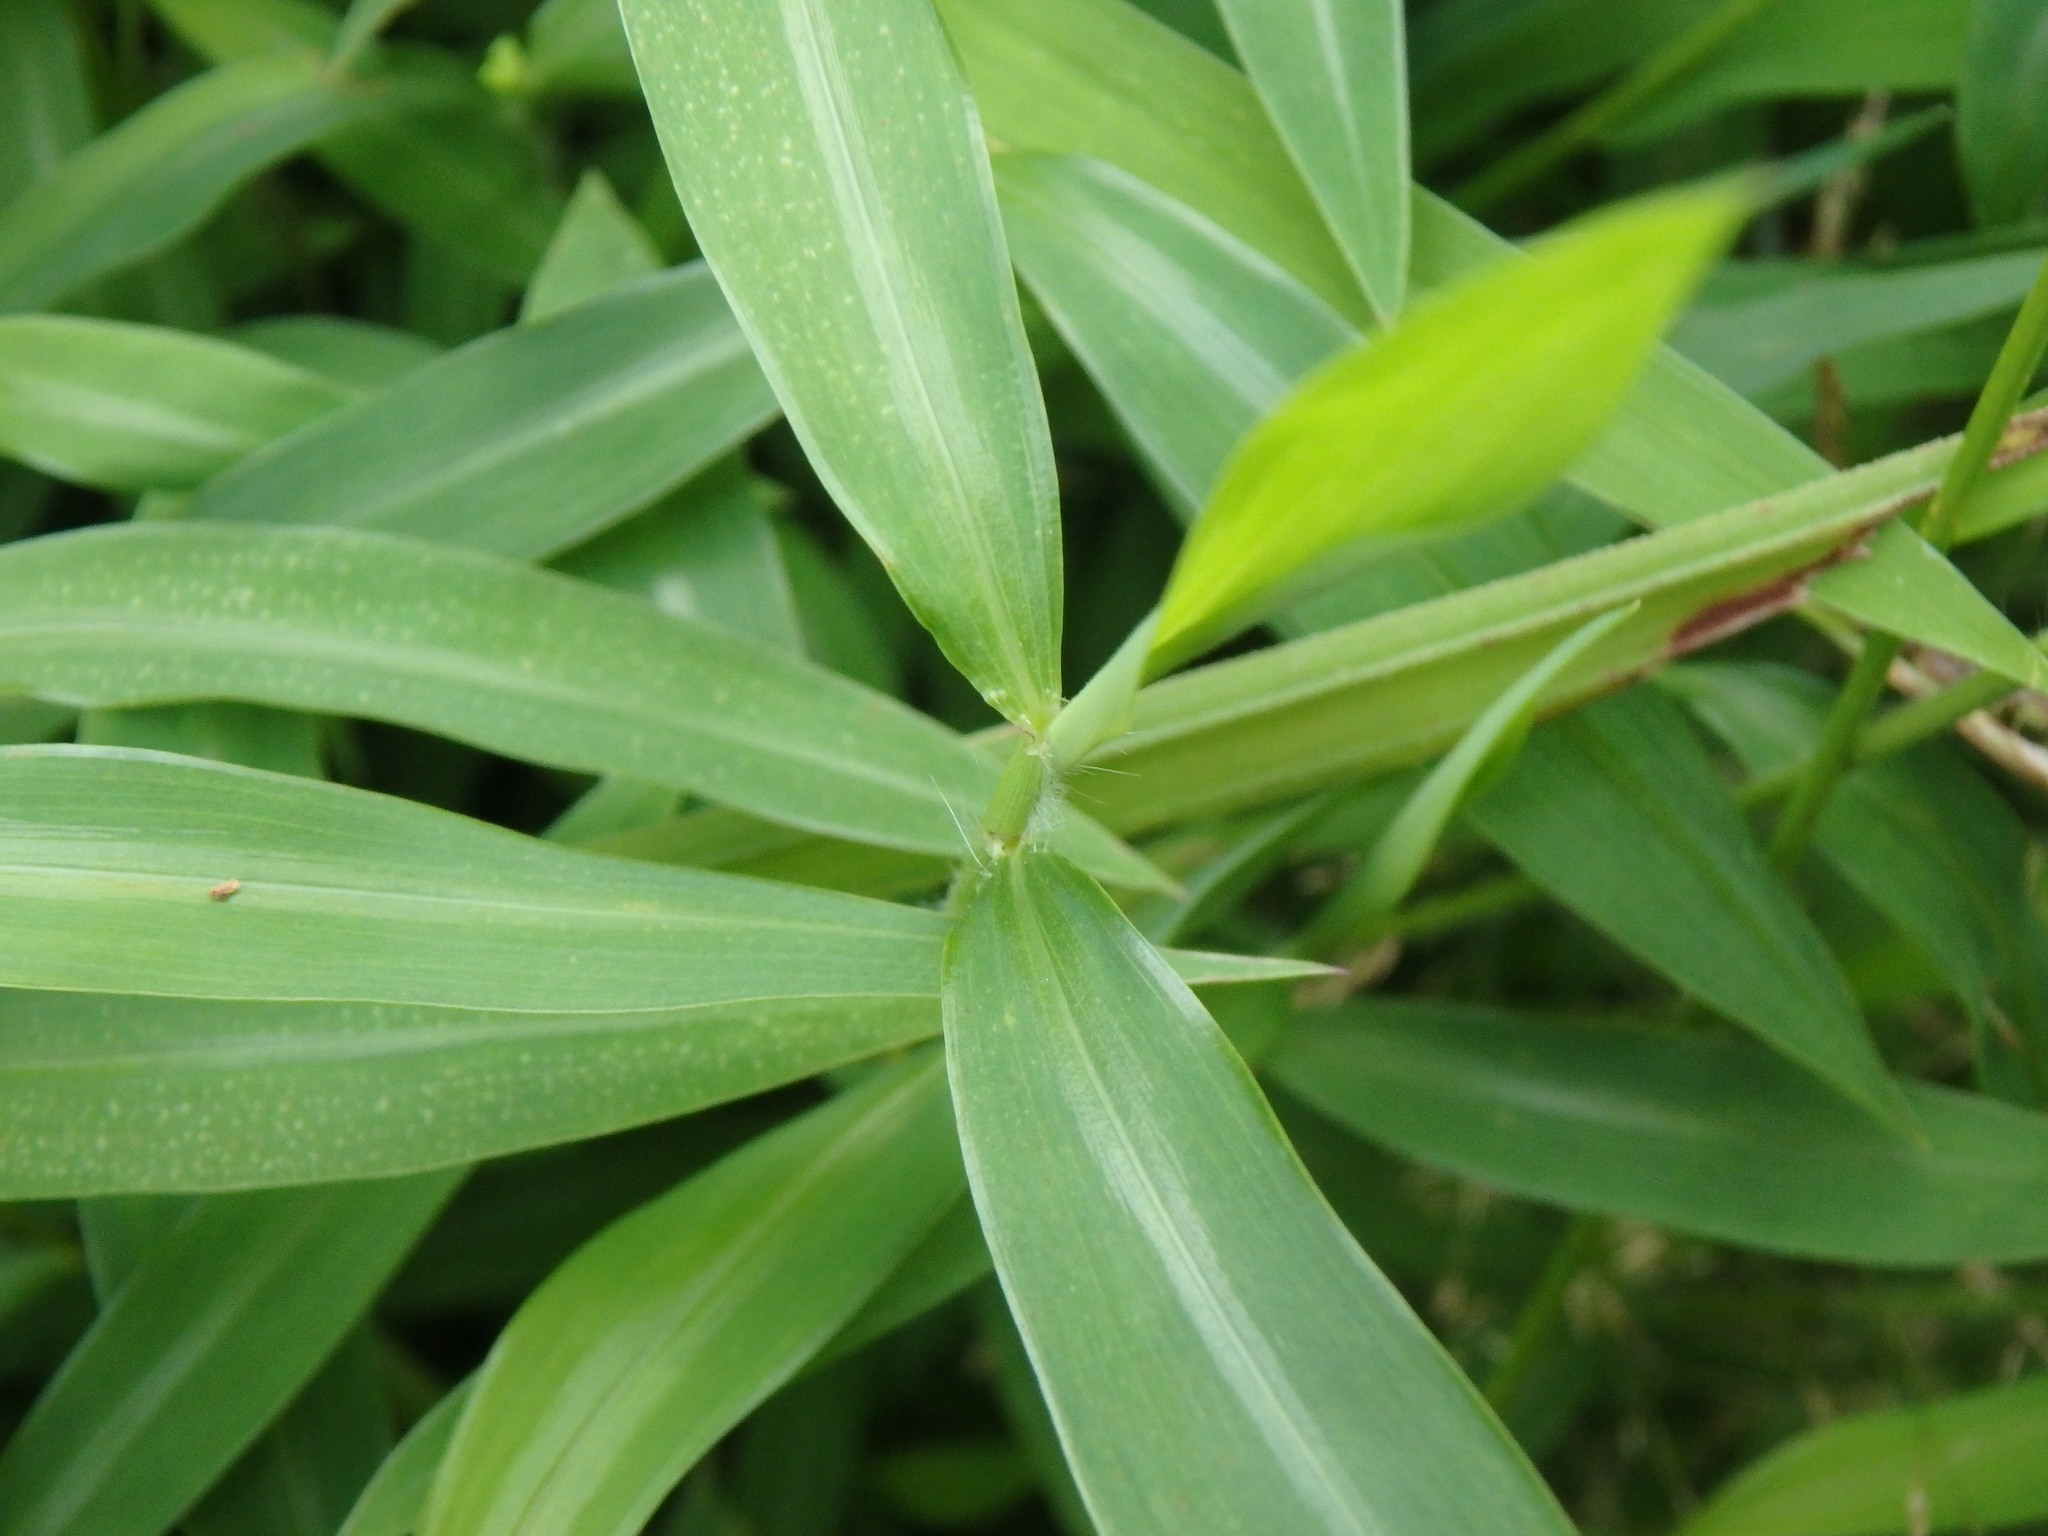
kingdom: Plantae
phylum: Tracheophyta
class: Liliopsida
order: Poales
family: Poaceae
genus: Microstegium
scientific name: Microstegium vimineum
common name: Japanese stiltgrass
